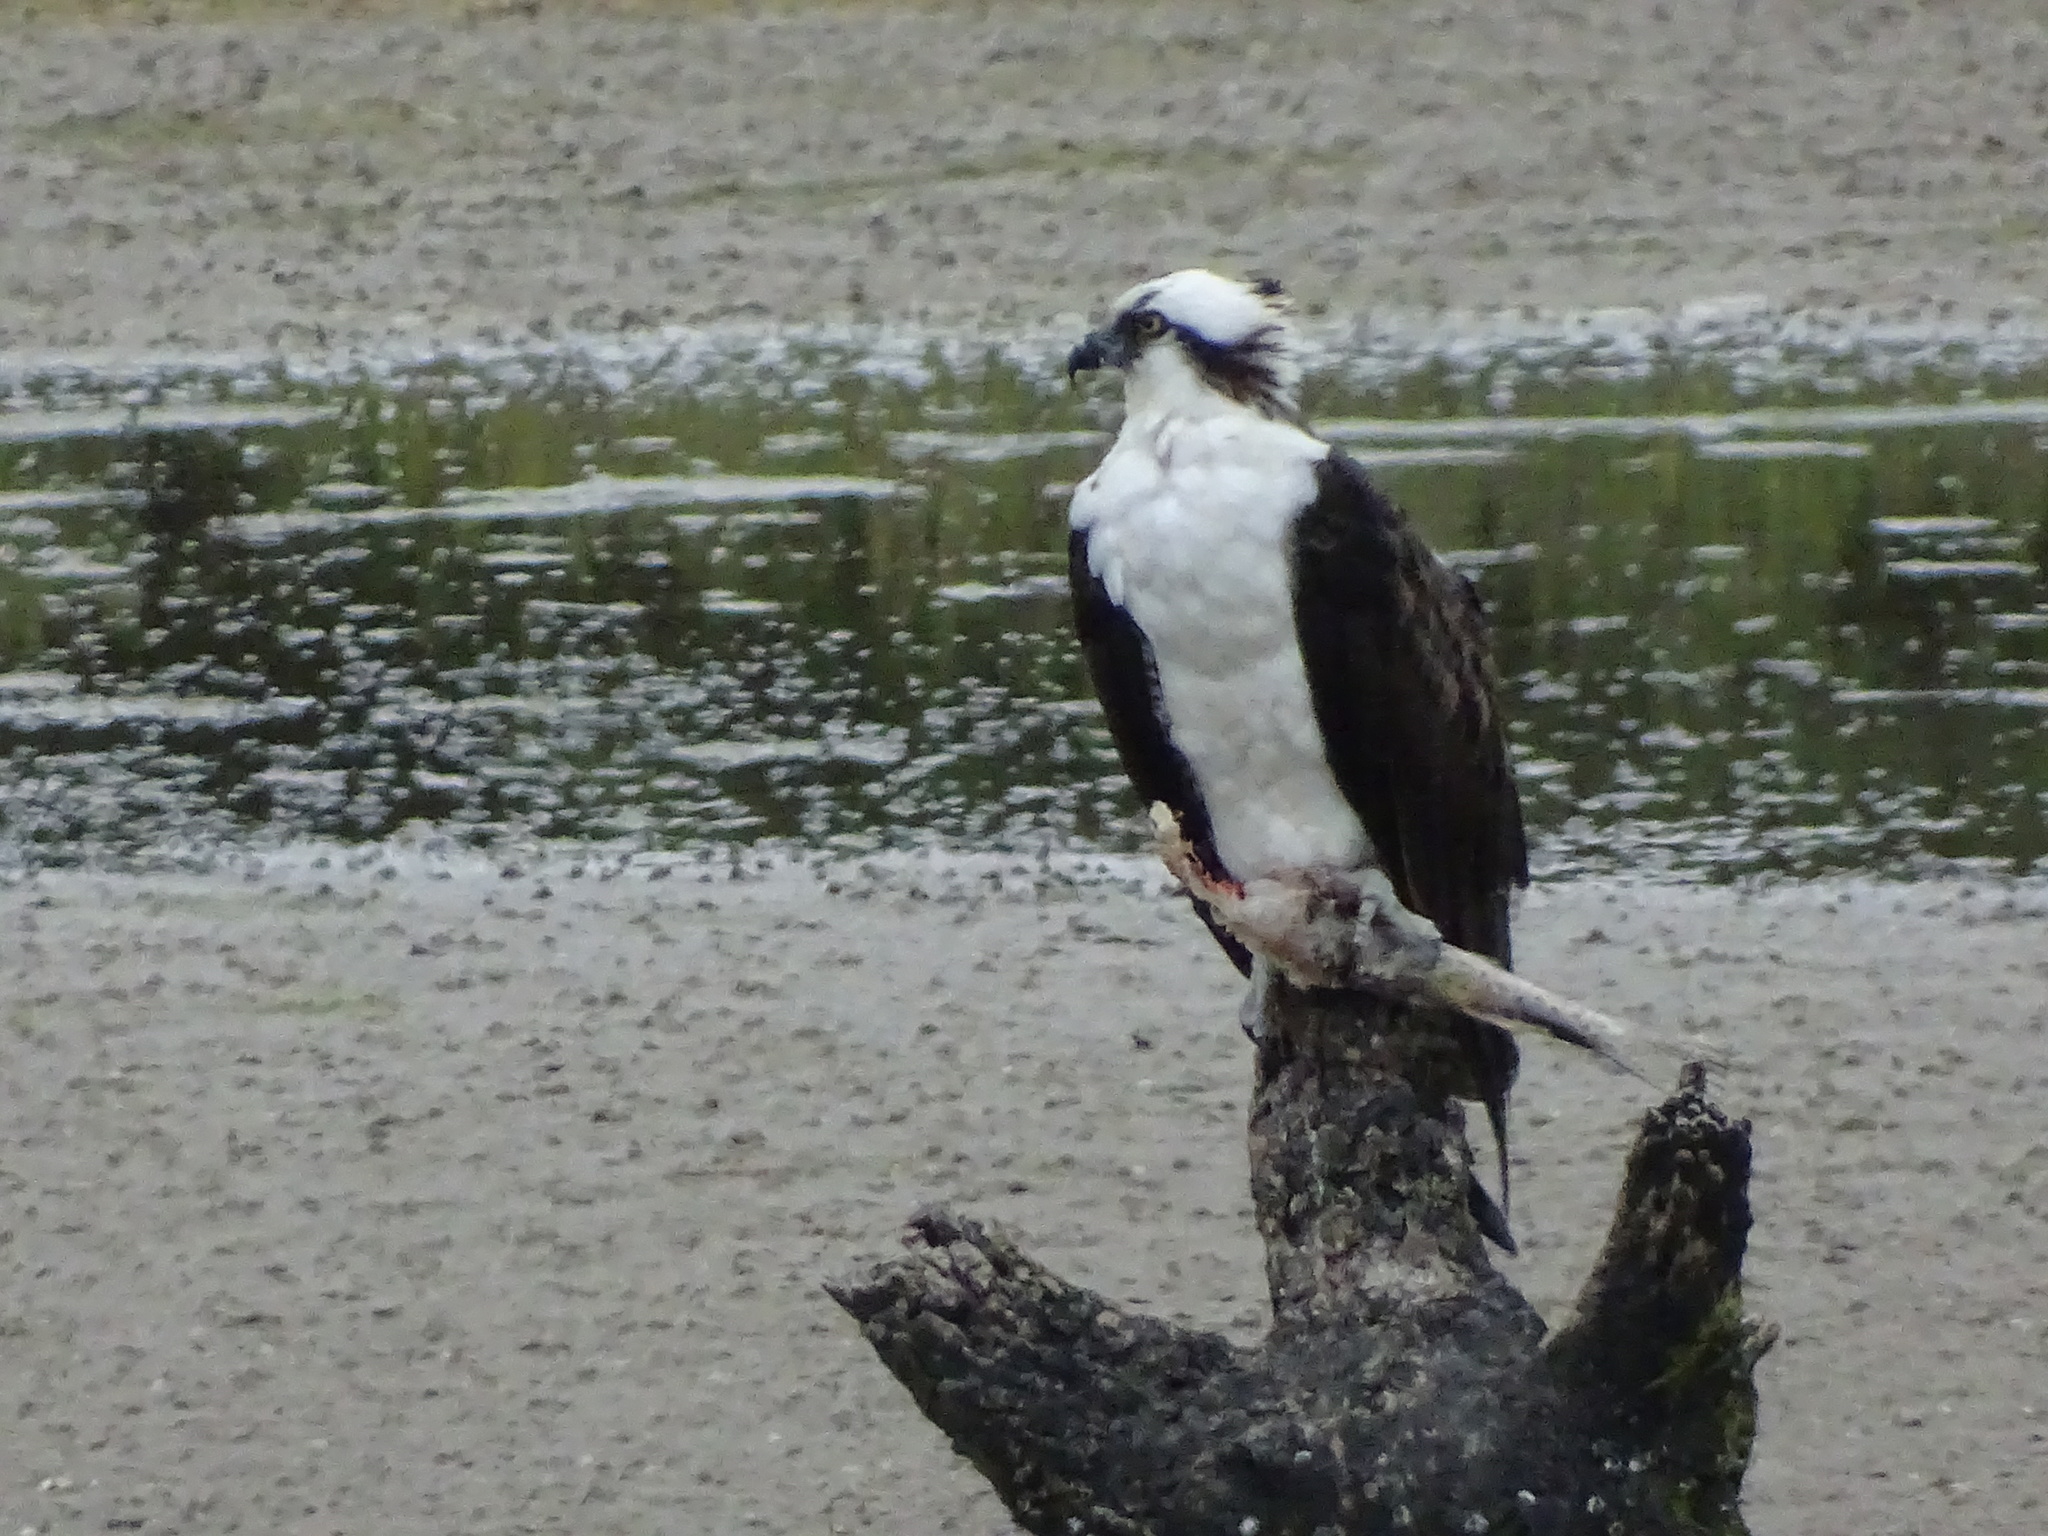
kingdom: Animalia
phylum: Chordata
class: Aves
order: Accipitriformes
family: Pandionidae
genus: Pandion
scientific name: Pandion haliaetus
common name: Osprey
